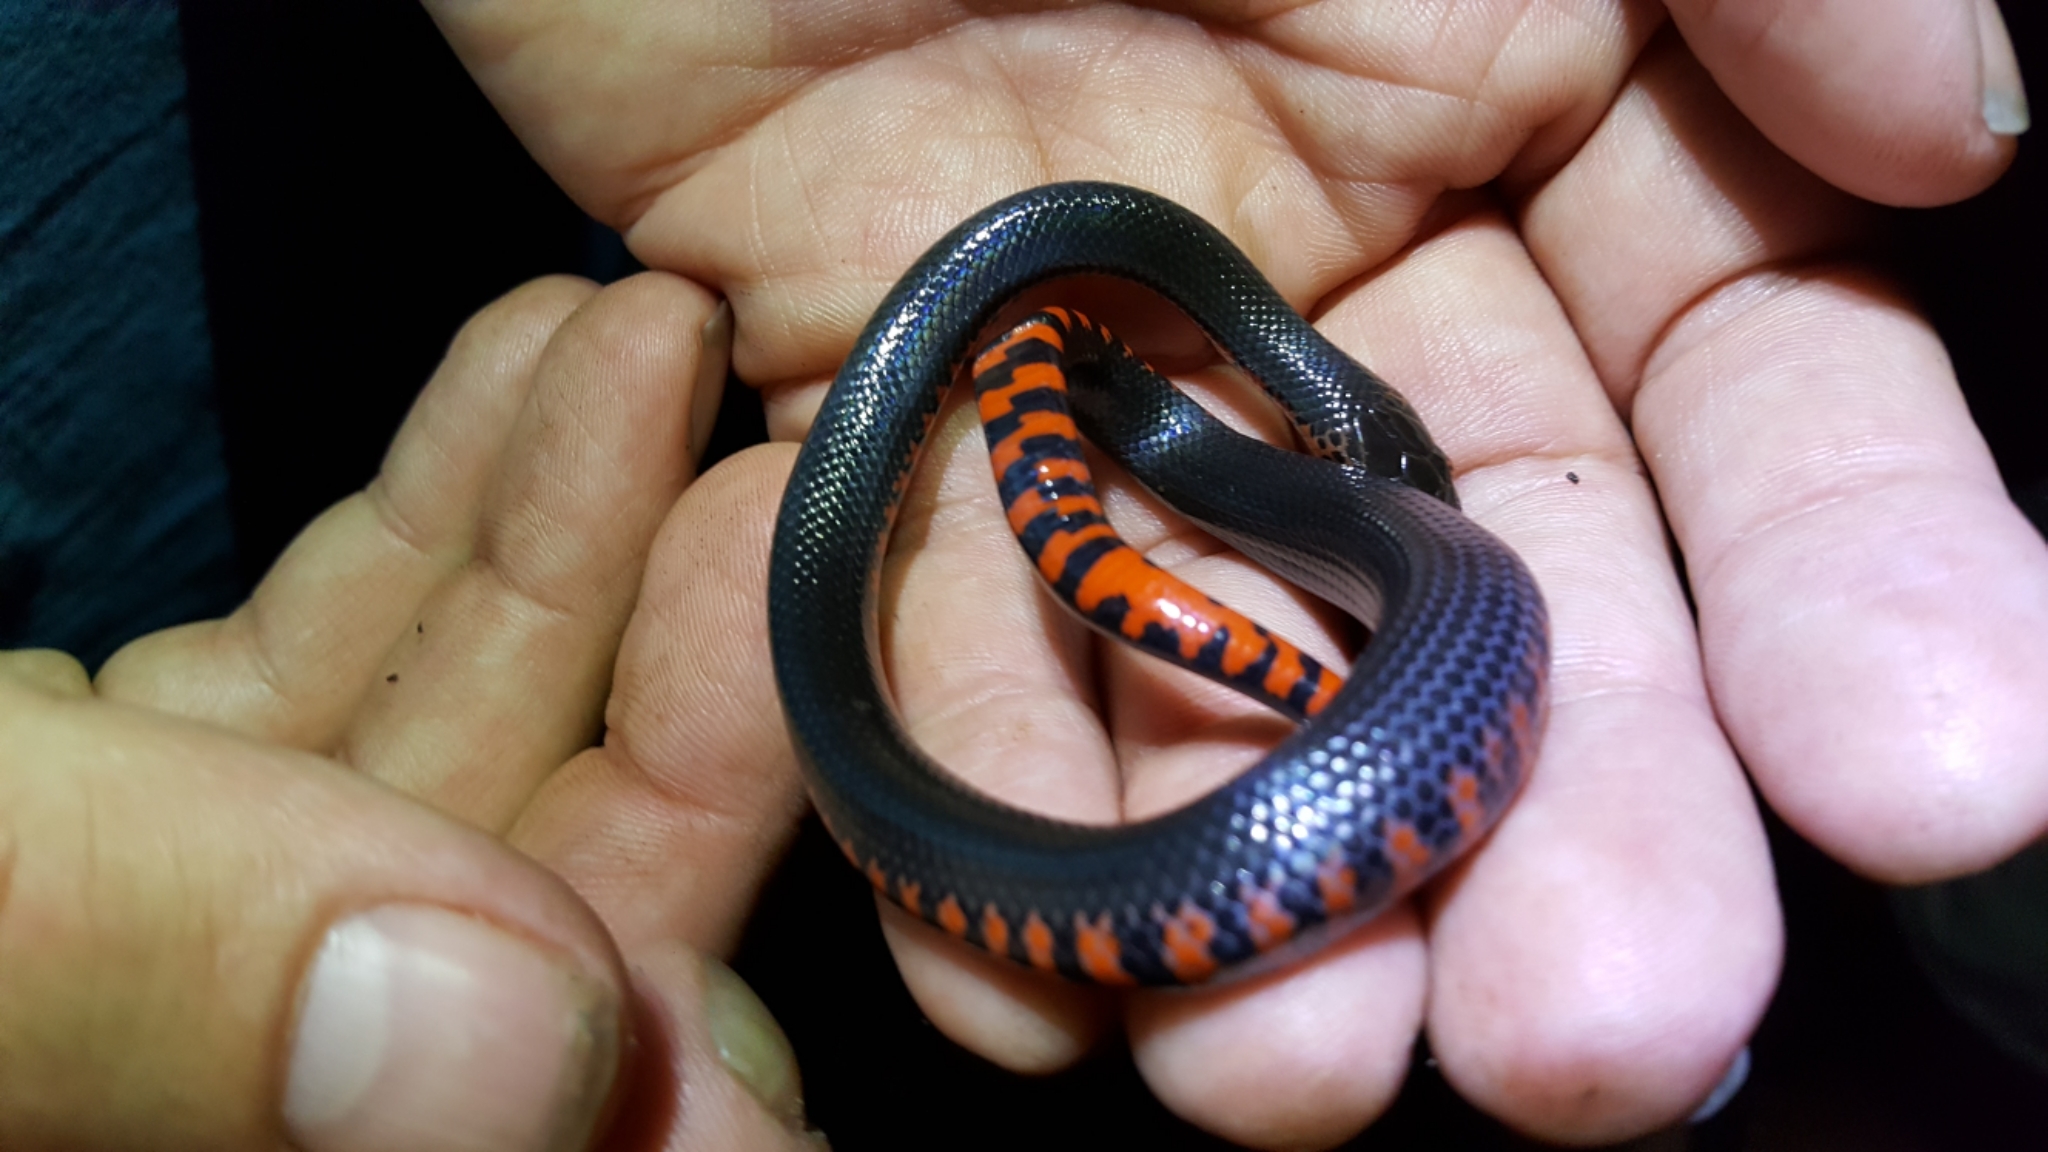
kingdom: Animalia
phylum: Chordata
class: Squamata
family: Colubridae
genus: Farancia
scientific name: Farancia abacura
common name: Mud snake
